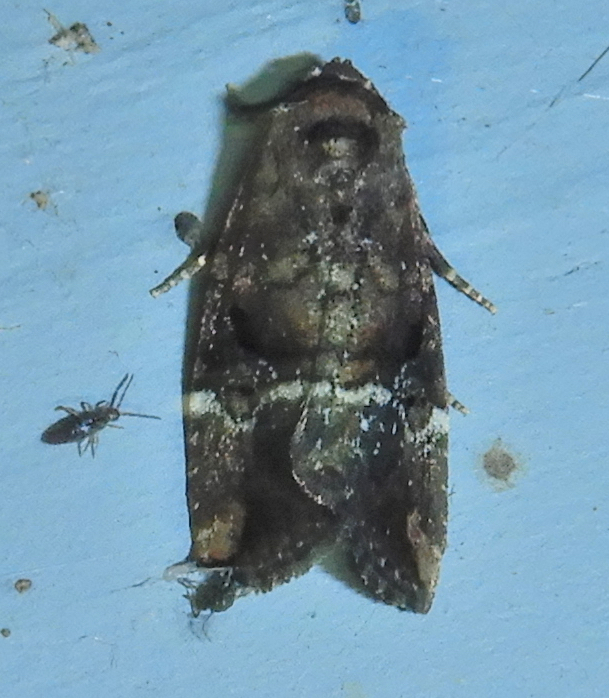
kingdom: Animalia
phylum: Arthropoda
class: Insecta
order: Lepidoptera
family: Noctuidae
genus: Elaphria
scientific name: Elaphria versicolor
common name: Fir harlequin
